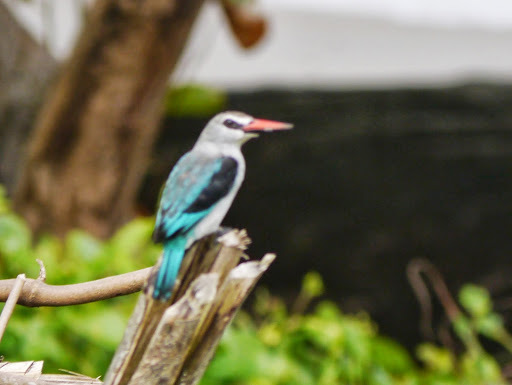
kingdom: Animalia
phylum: Chordata
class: Aves
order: Coraciiformes
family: Alcedinidae
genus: Halcyon
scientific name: Halcyon senegalensis
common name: Woodland kingfisher
